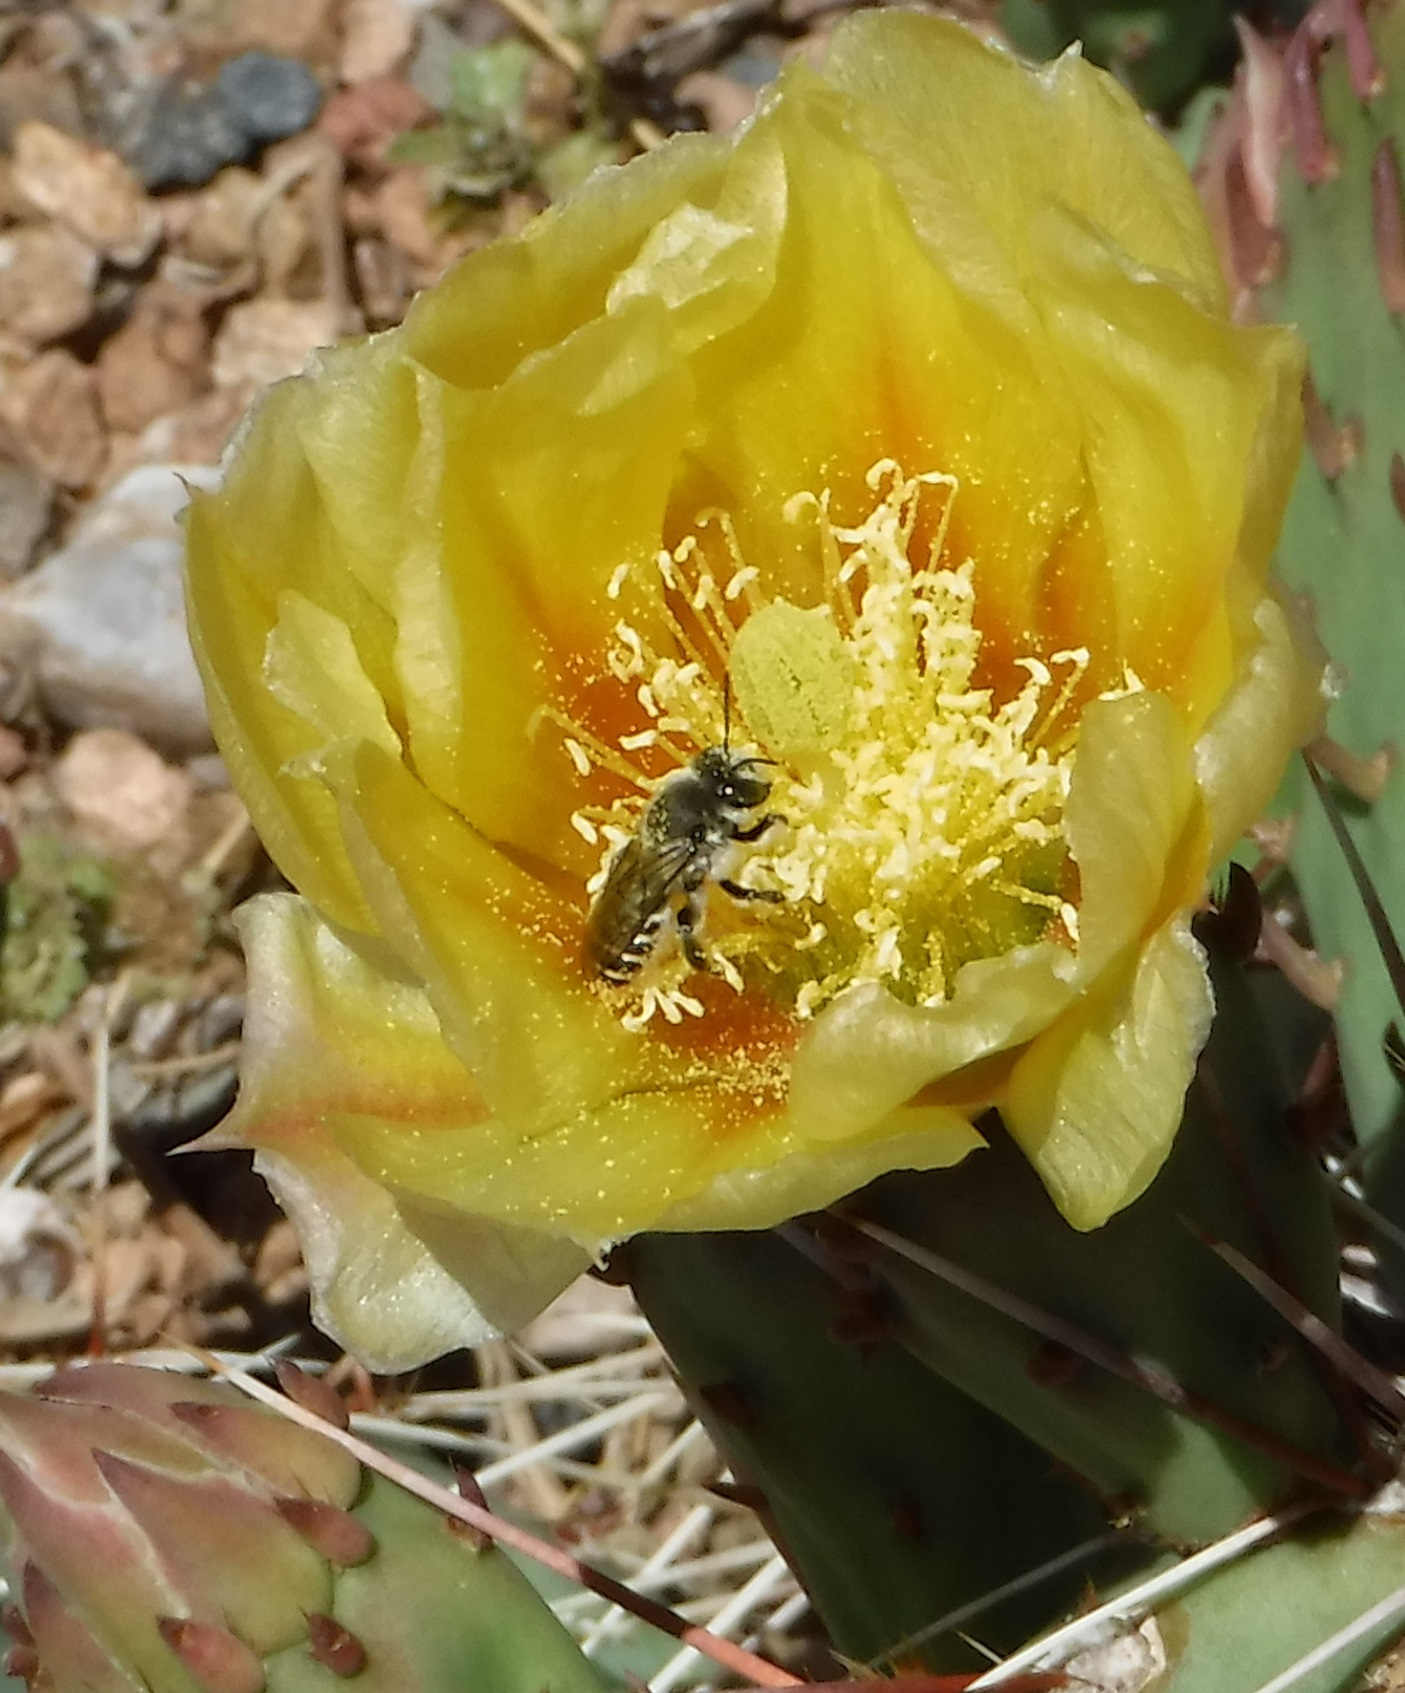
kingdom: Animalia
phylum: Arthropoda
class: Insecta
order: Hymenoptera
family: Megachilidae
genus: Lithurgopsis
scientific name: Lithurgopsis apicalis
